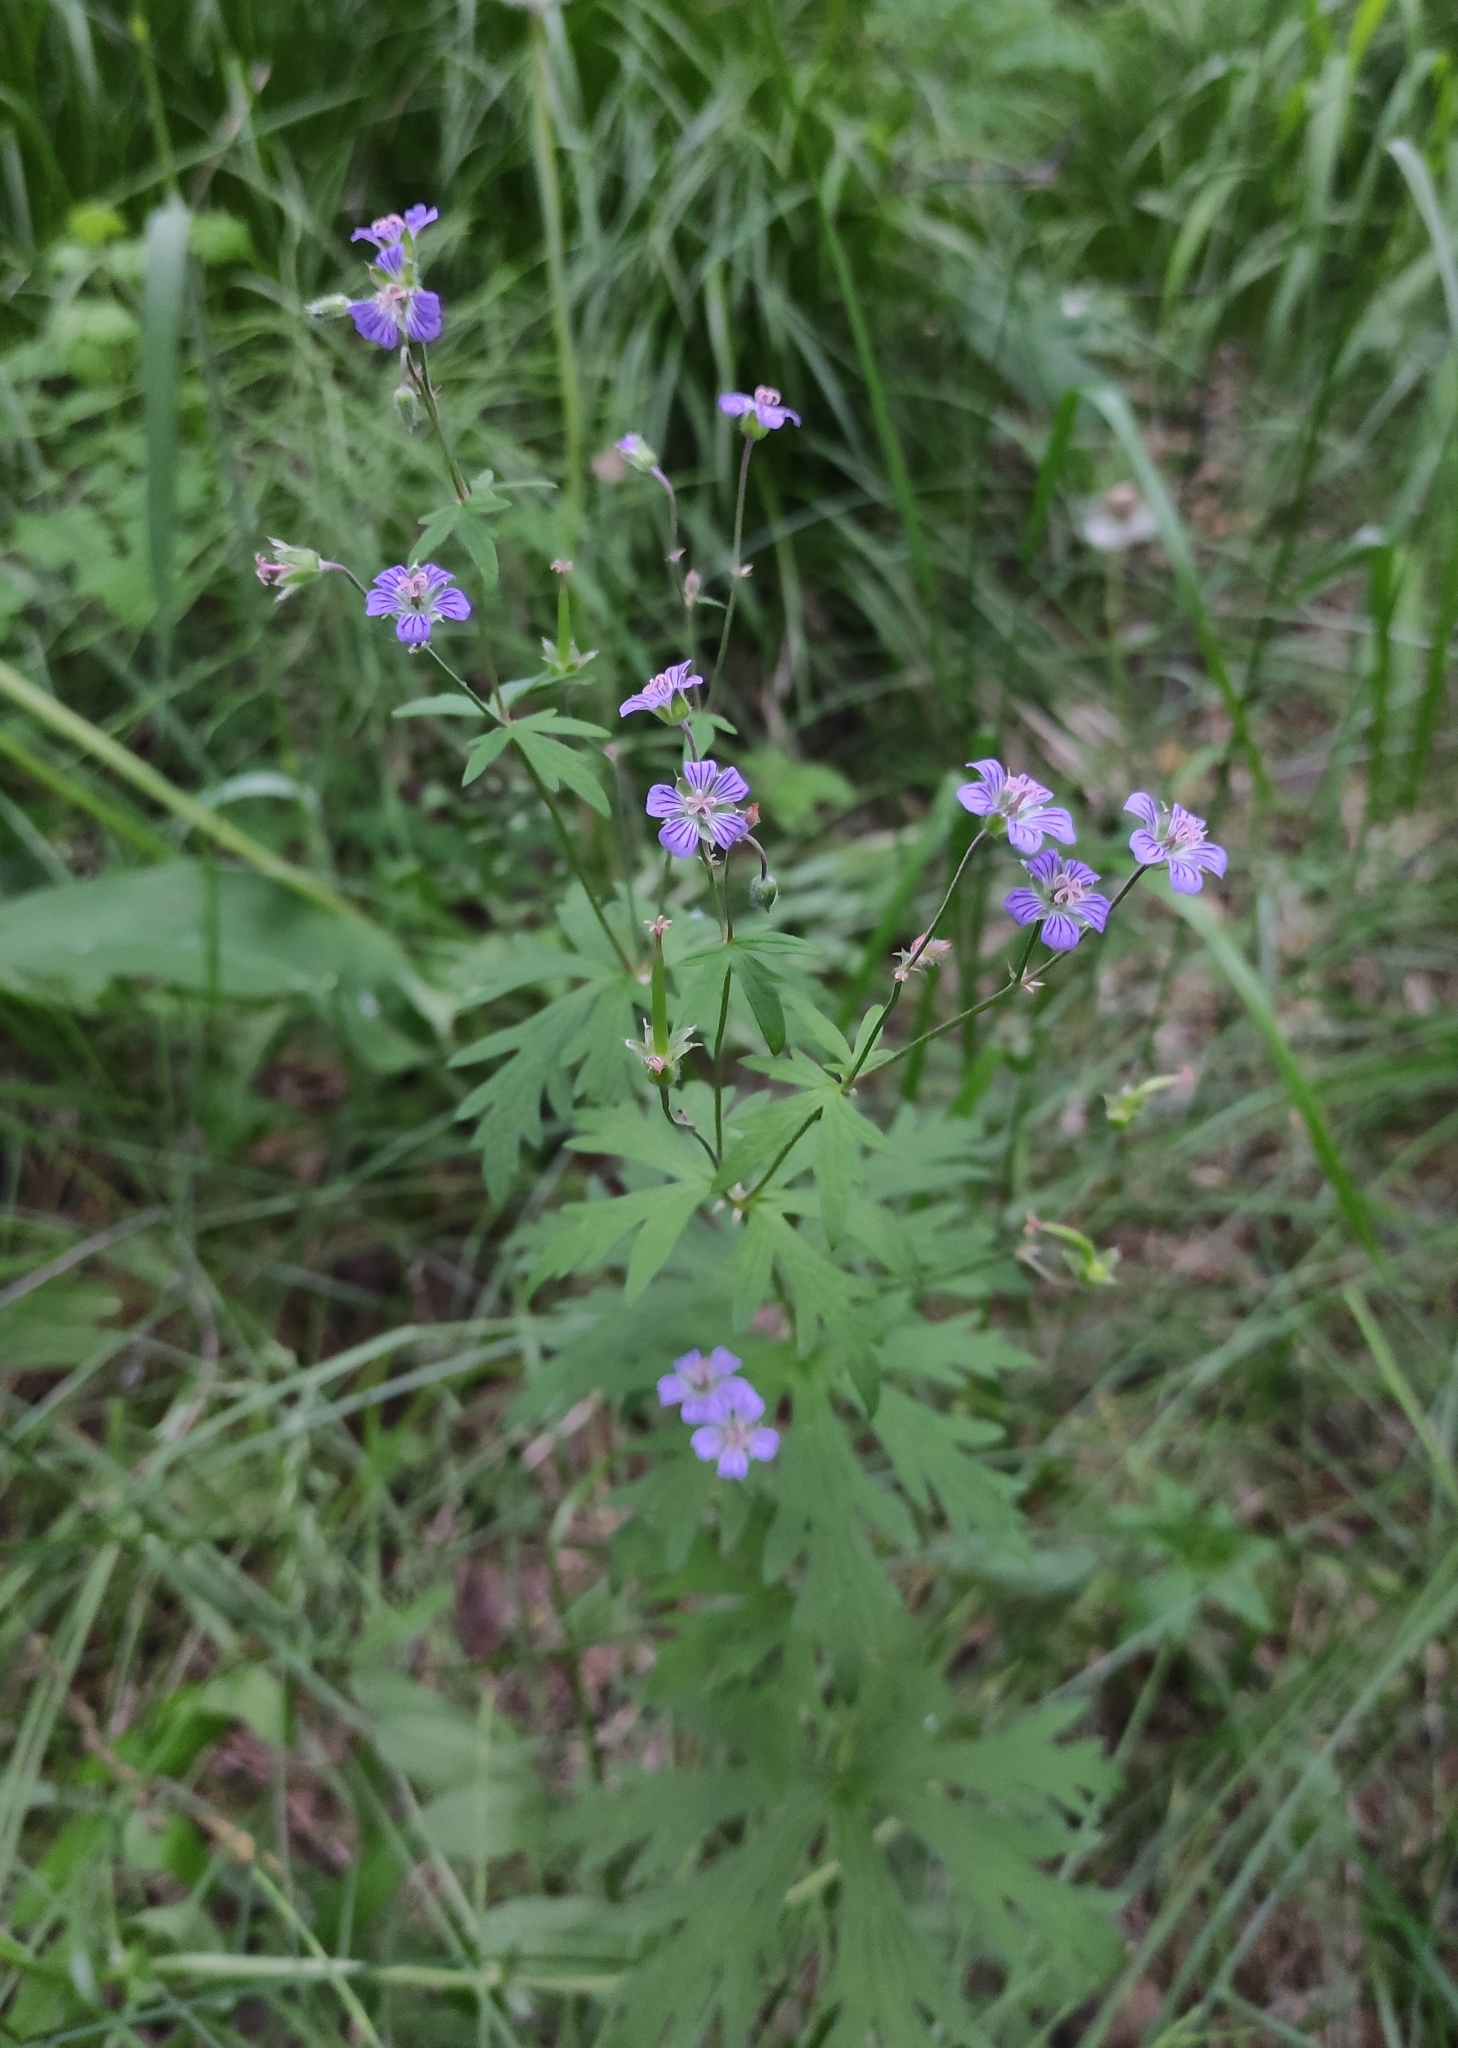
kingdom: Plantae
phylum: Tracheophyta
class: Magnoliopsida
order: Geraniales
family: Geraniaceae
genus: Geranium
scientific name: Geranium pseudosibiricum
